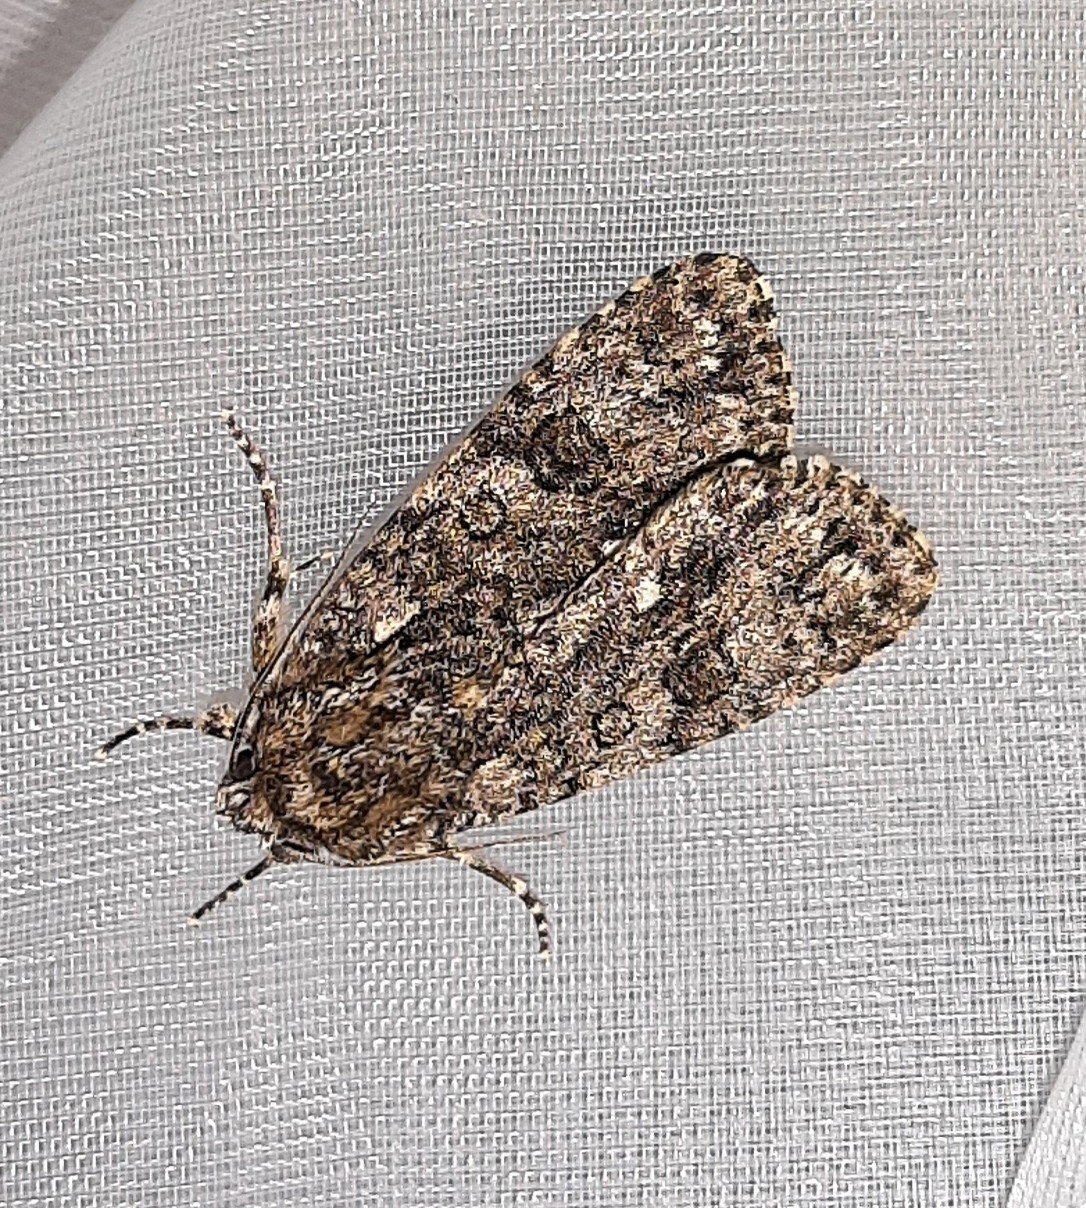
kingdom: Animalia
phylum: Arthropoda
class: Insecta
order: Lepidoptera
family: Noctuidae
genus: Acronicta
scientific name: Acronicta rumicis
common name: Knot grass
